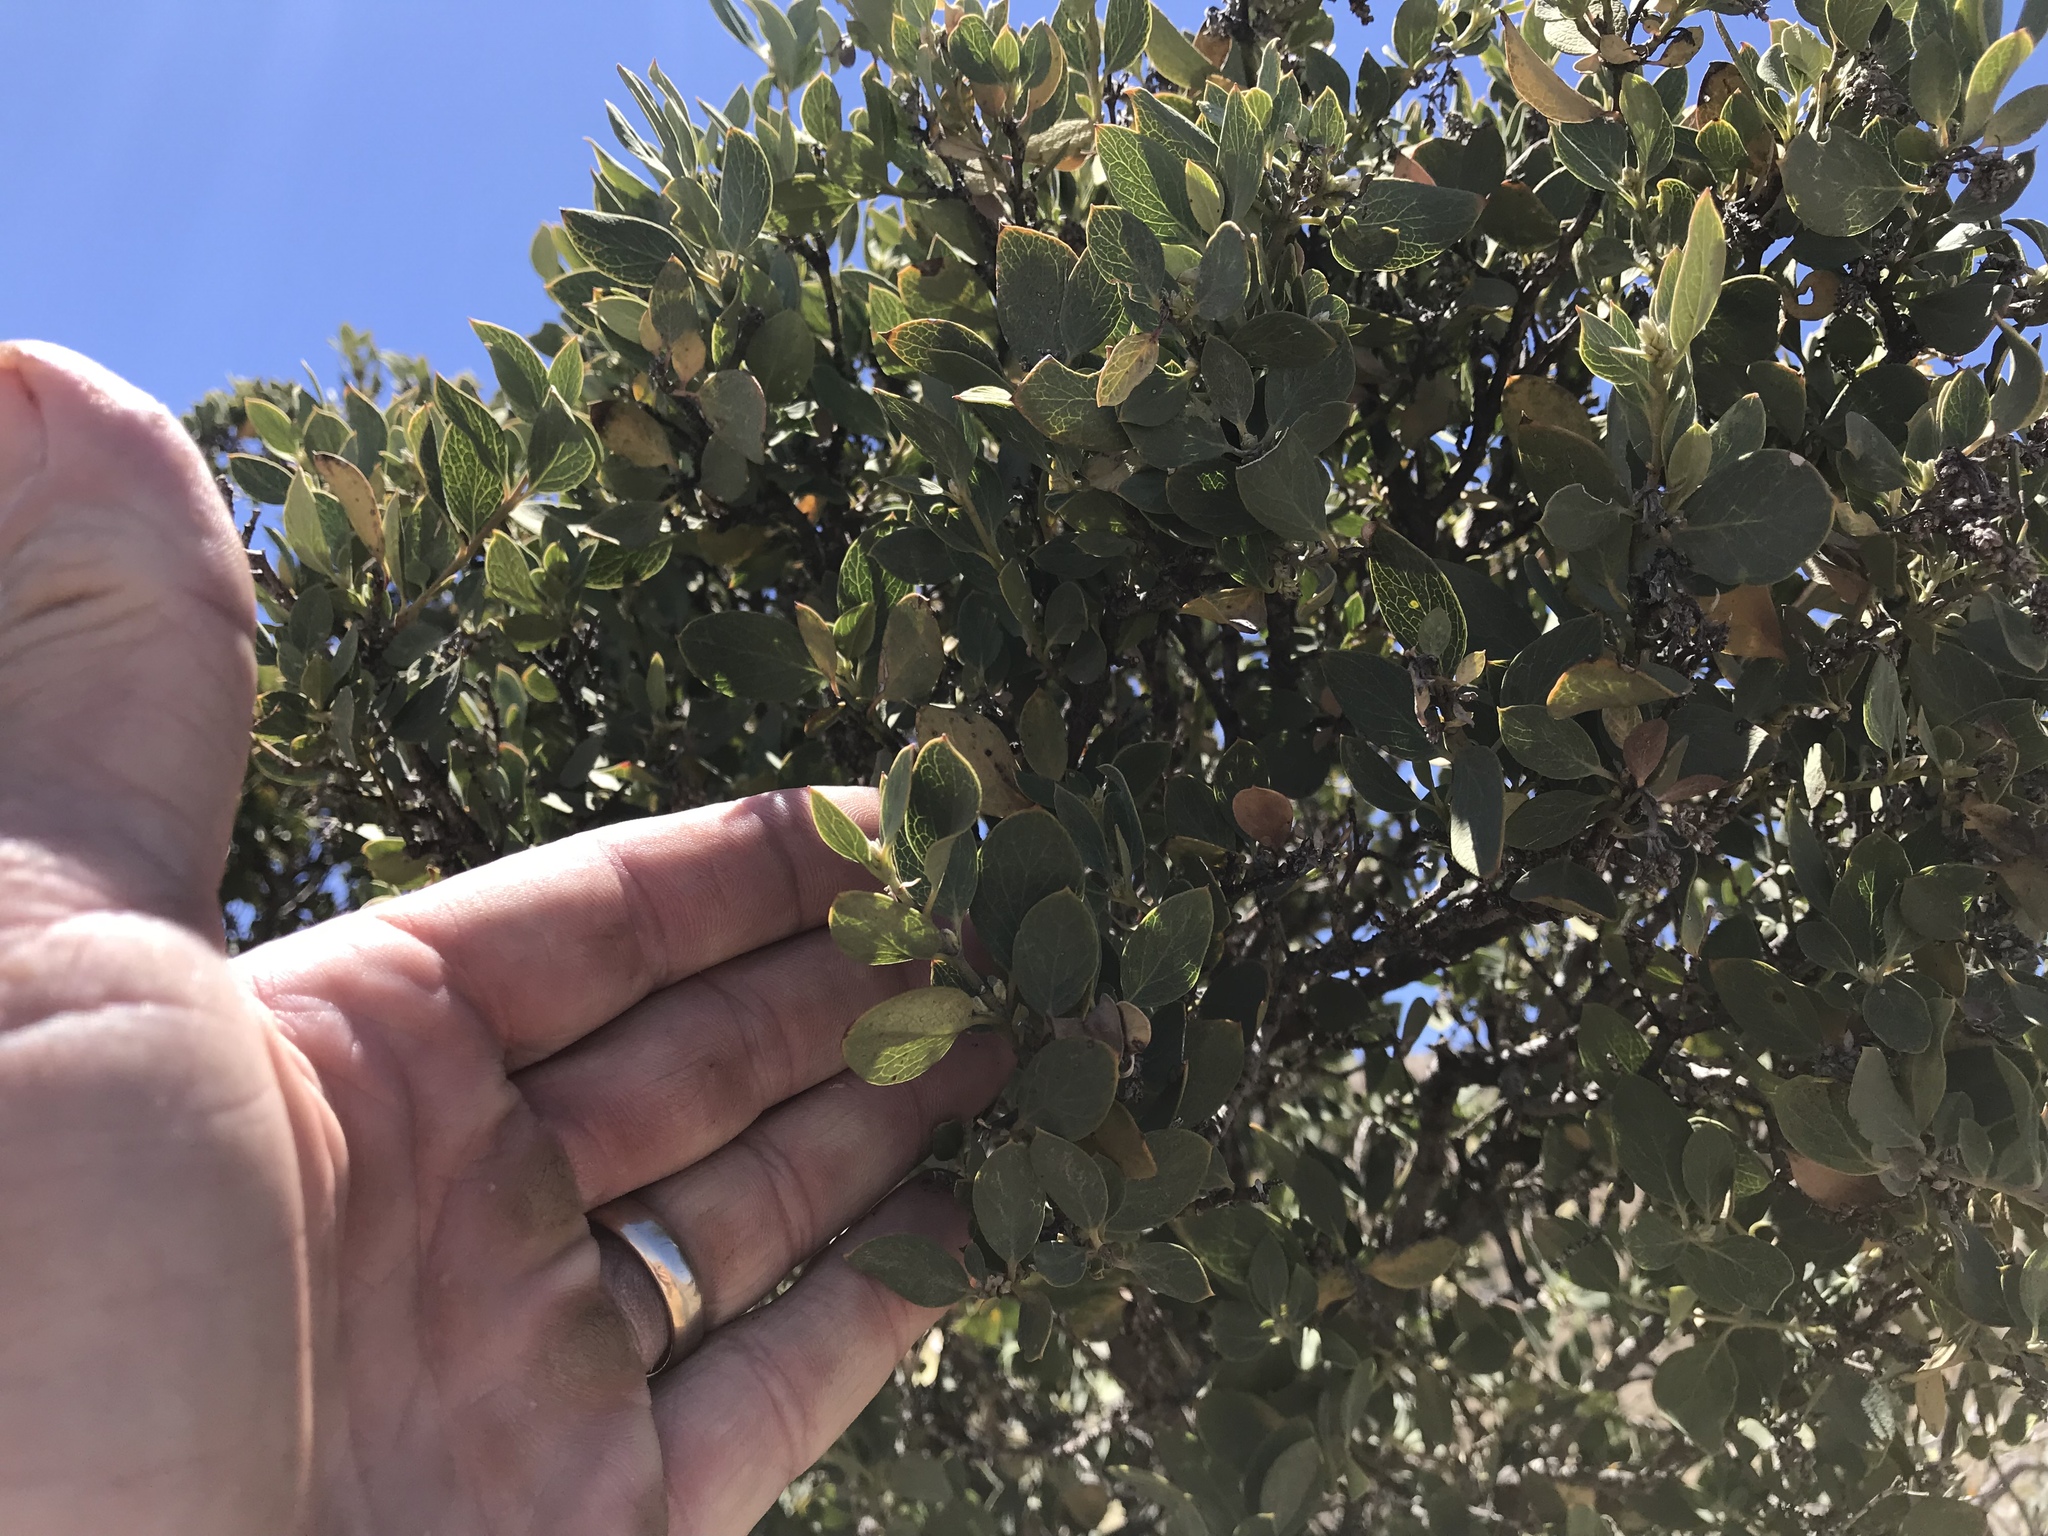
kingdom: Plantae
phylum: Tracheophyta
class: Magnoliopsida
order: Garryales
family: Garryaceae
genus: Garrya
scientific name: Garrya wrightii
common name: Wright's silktassel
